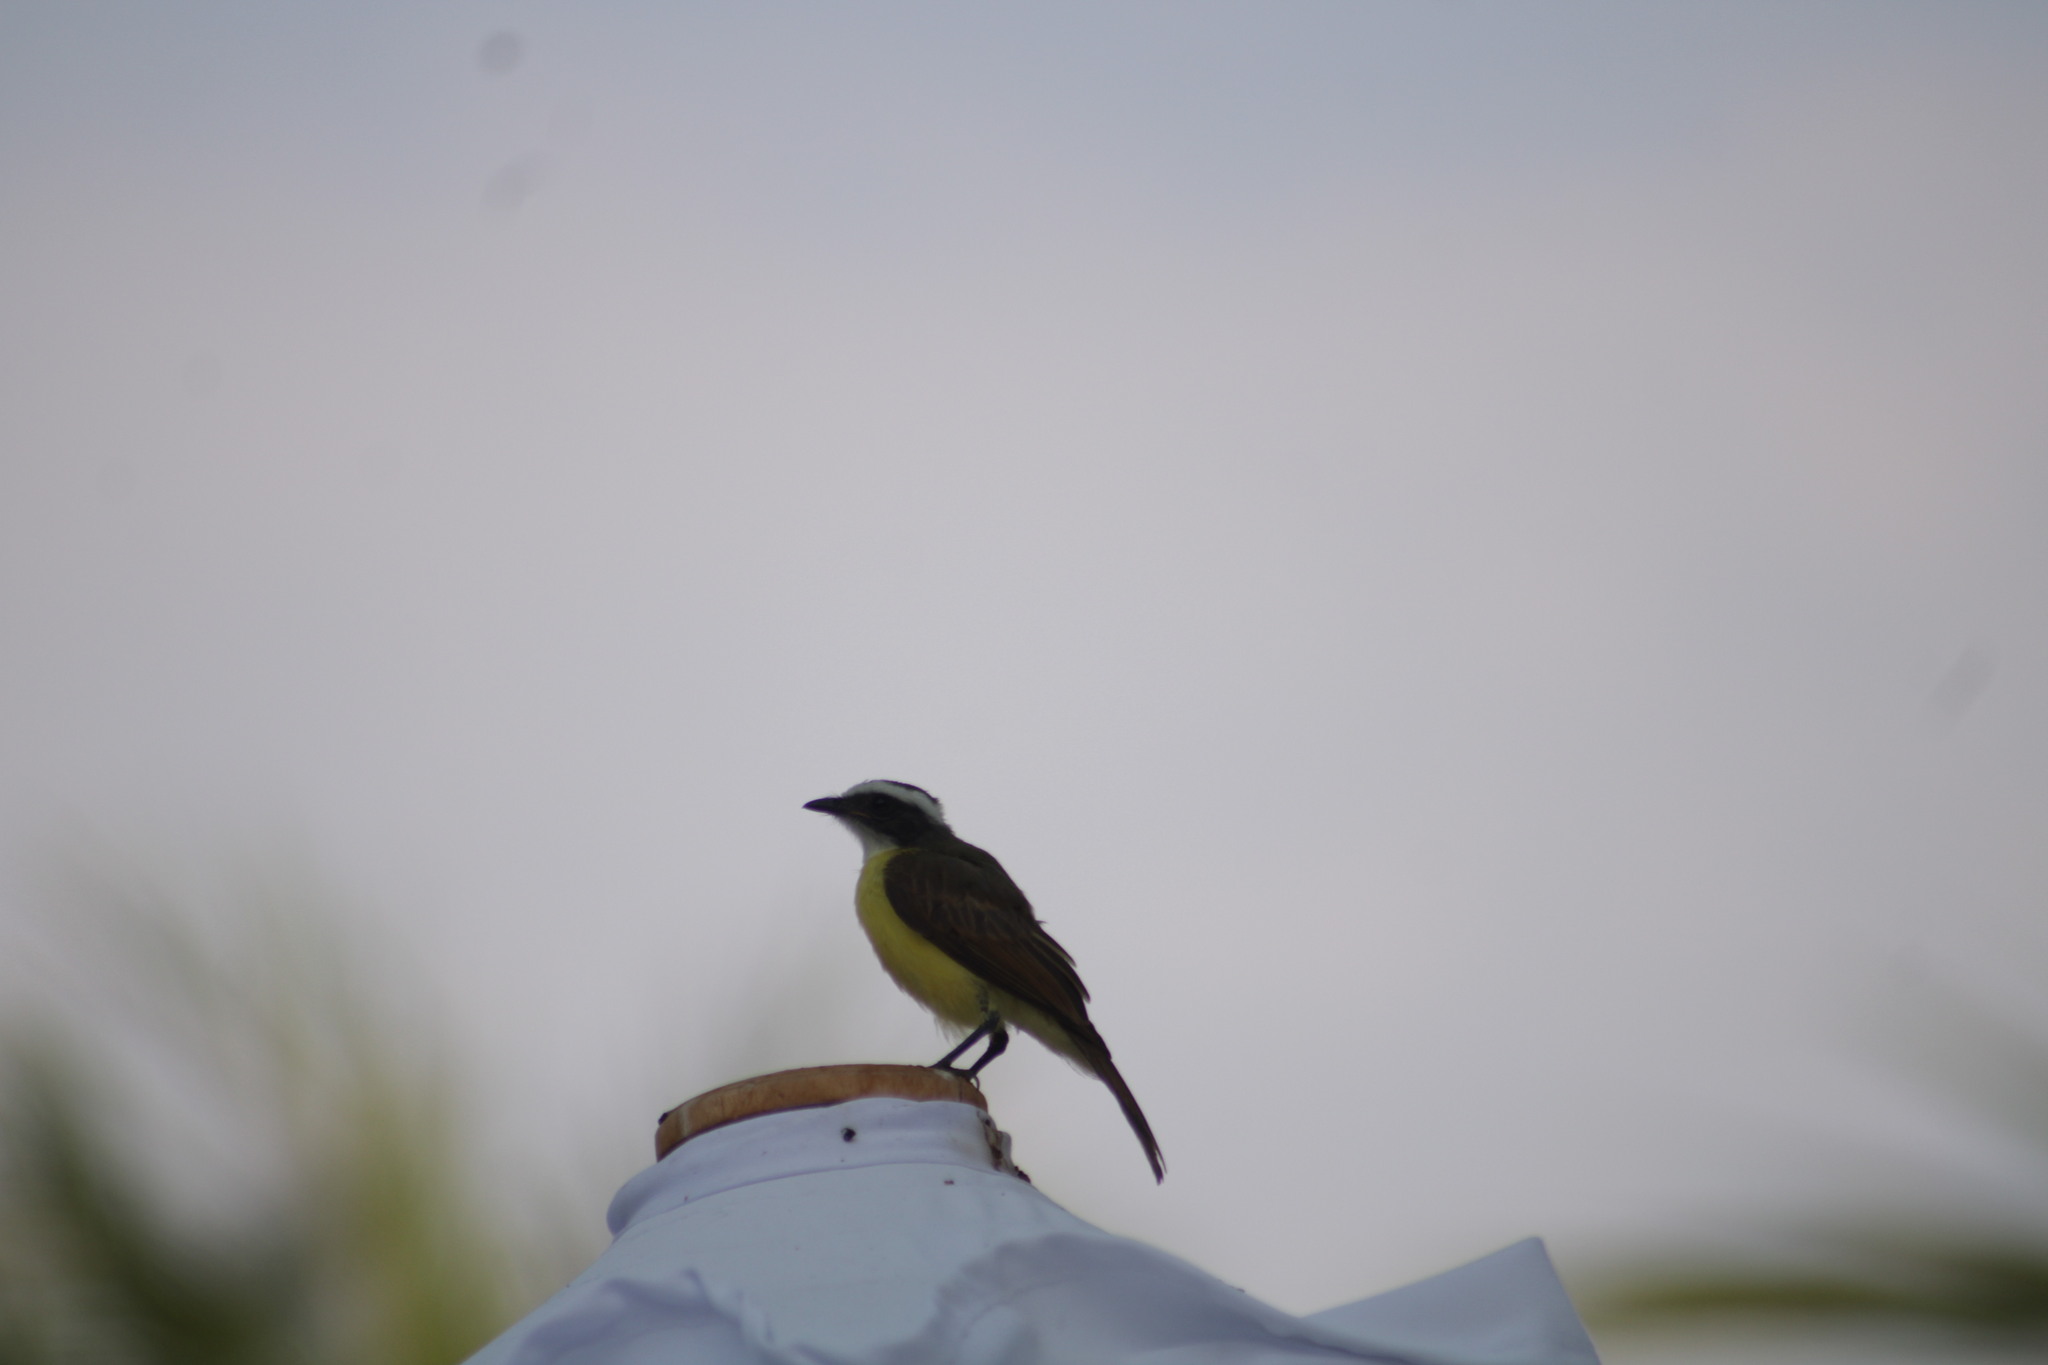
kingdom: Animalia
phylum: Chordata
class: Aves
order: Passeriformes
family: Tyrannidae
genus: Myiozetetes
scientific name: Myiozetetes similis
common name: Social flycatcher
